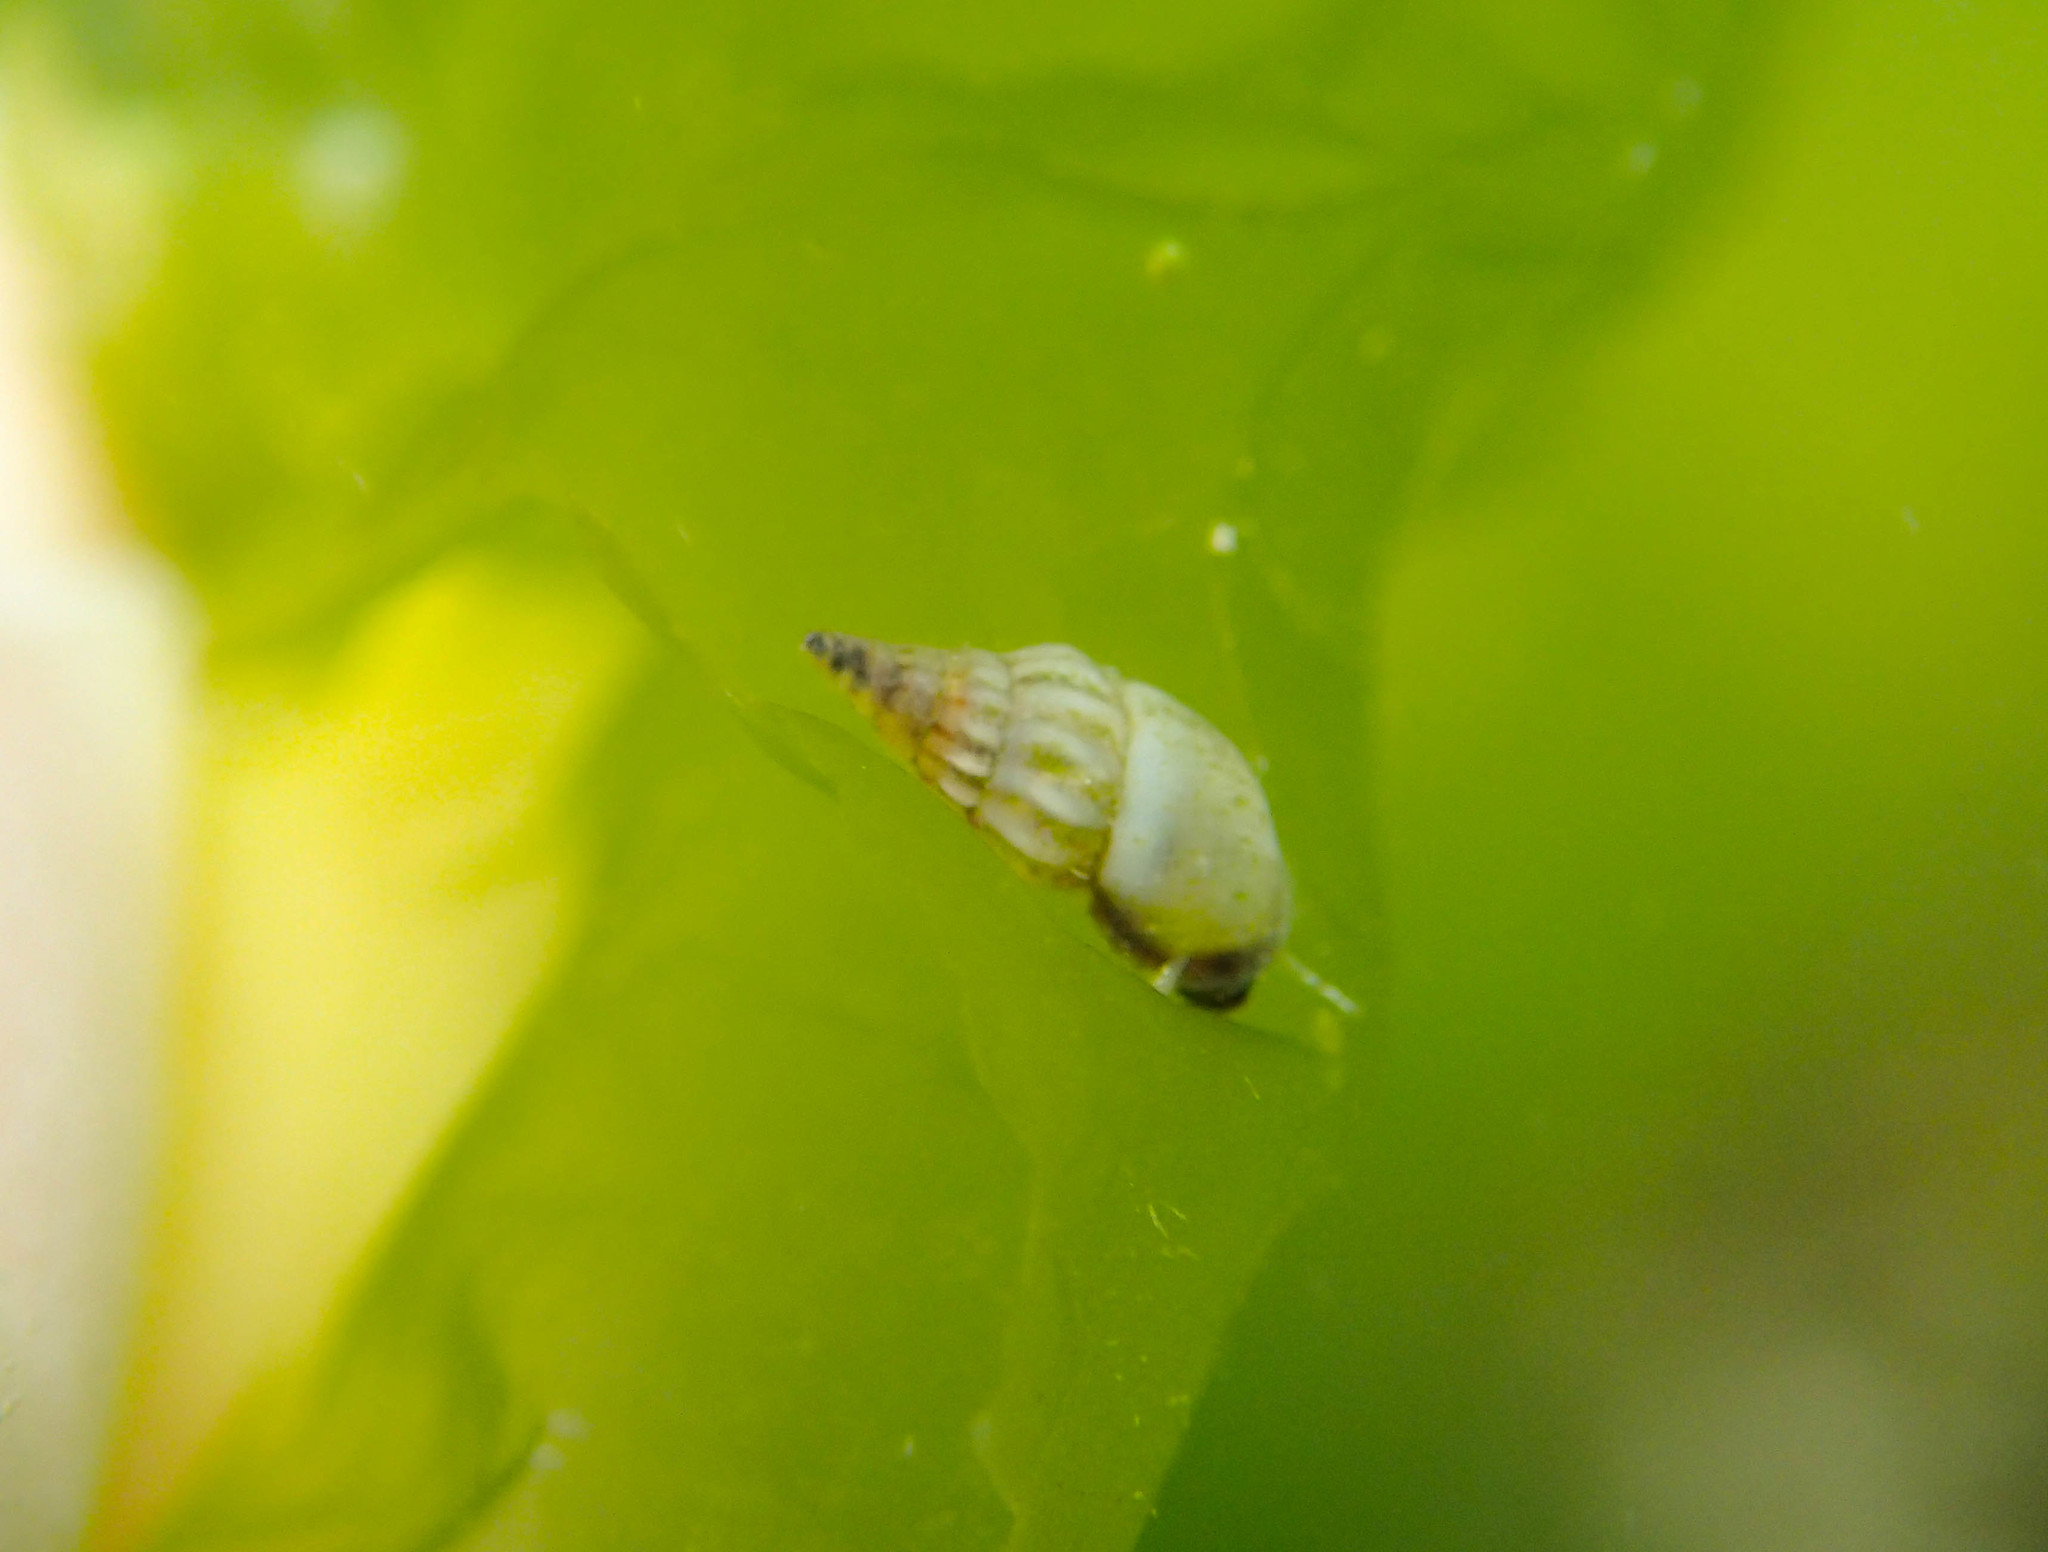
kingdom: Animalia
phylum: Mollusca
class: Gastropoda
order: Littorinimorpha
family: Rissoidae
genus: Rissoa
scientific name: Rissoa variabilis
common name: Variable risso
